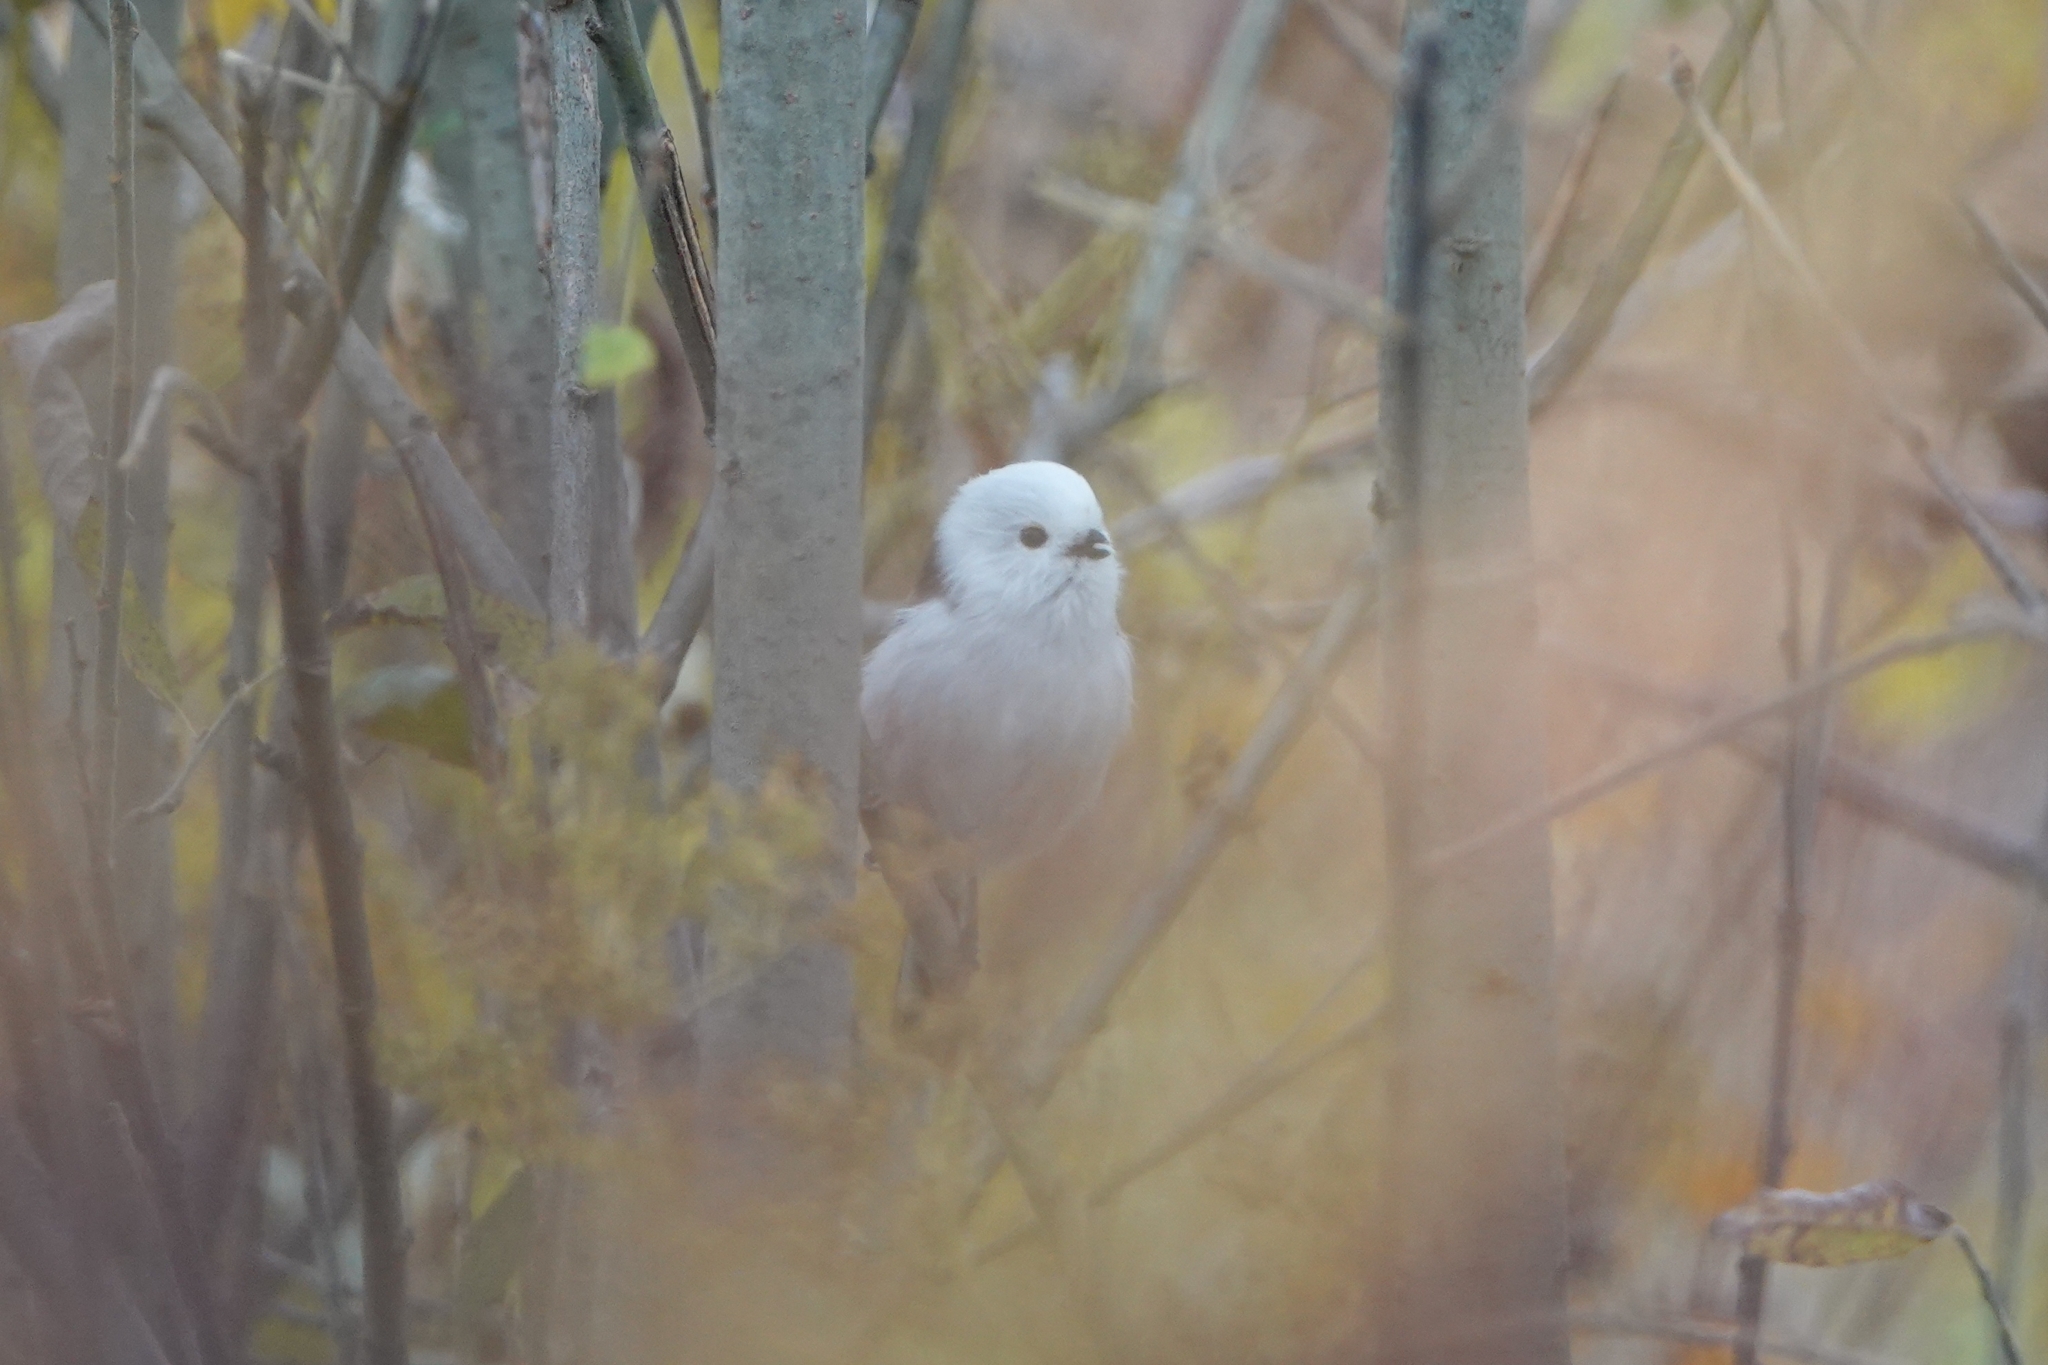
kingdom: Animalia
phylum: Chordata
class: Aves
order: Passeriformes
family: Aegithalidae
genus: Aegithalos
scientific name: Aegithalos caudatus
